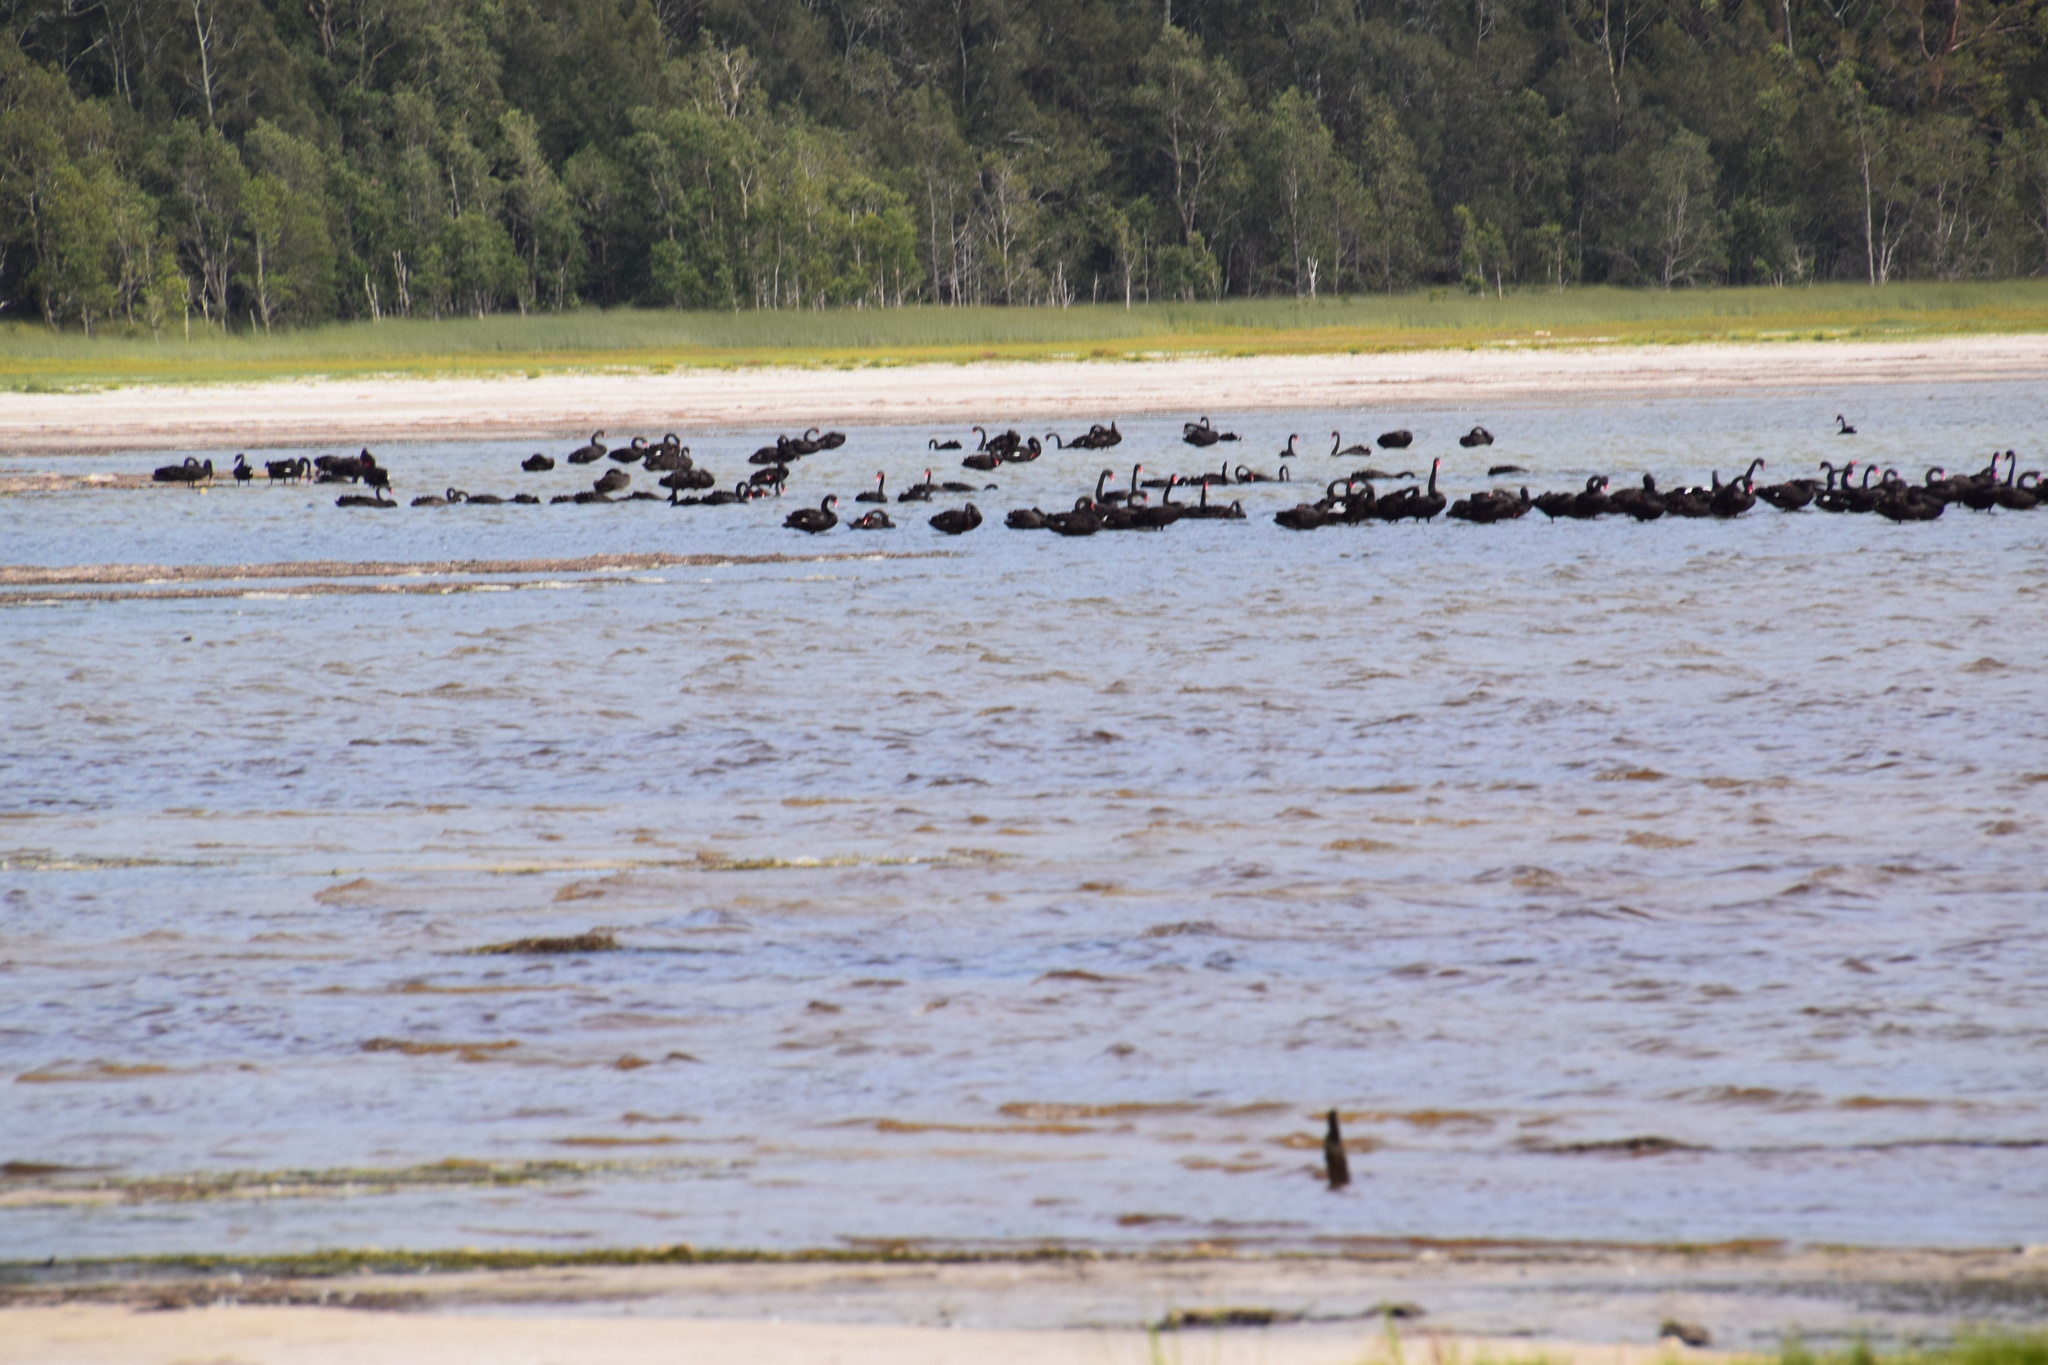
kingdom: Animalia
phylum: Chordata
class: Aves
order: Anseriformes
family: Anatidae
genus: Cygnus
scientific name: Cygnus atratus
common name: Black swan
